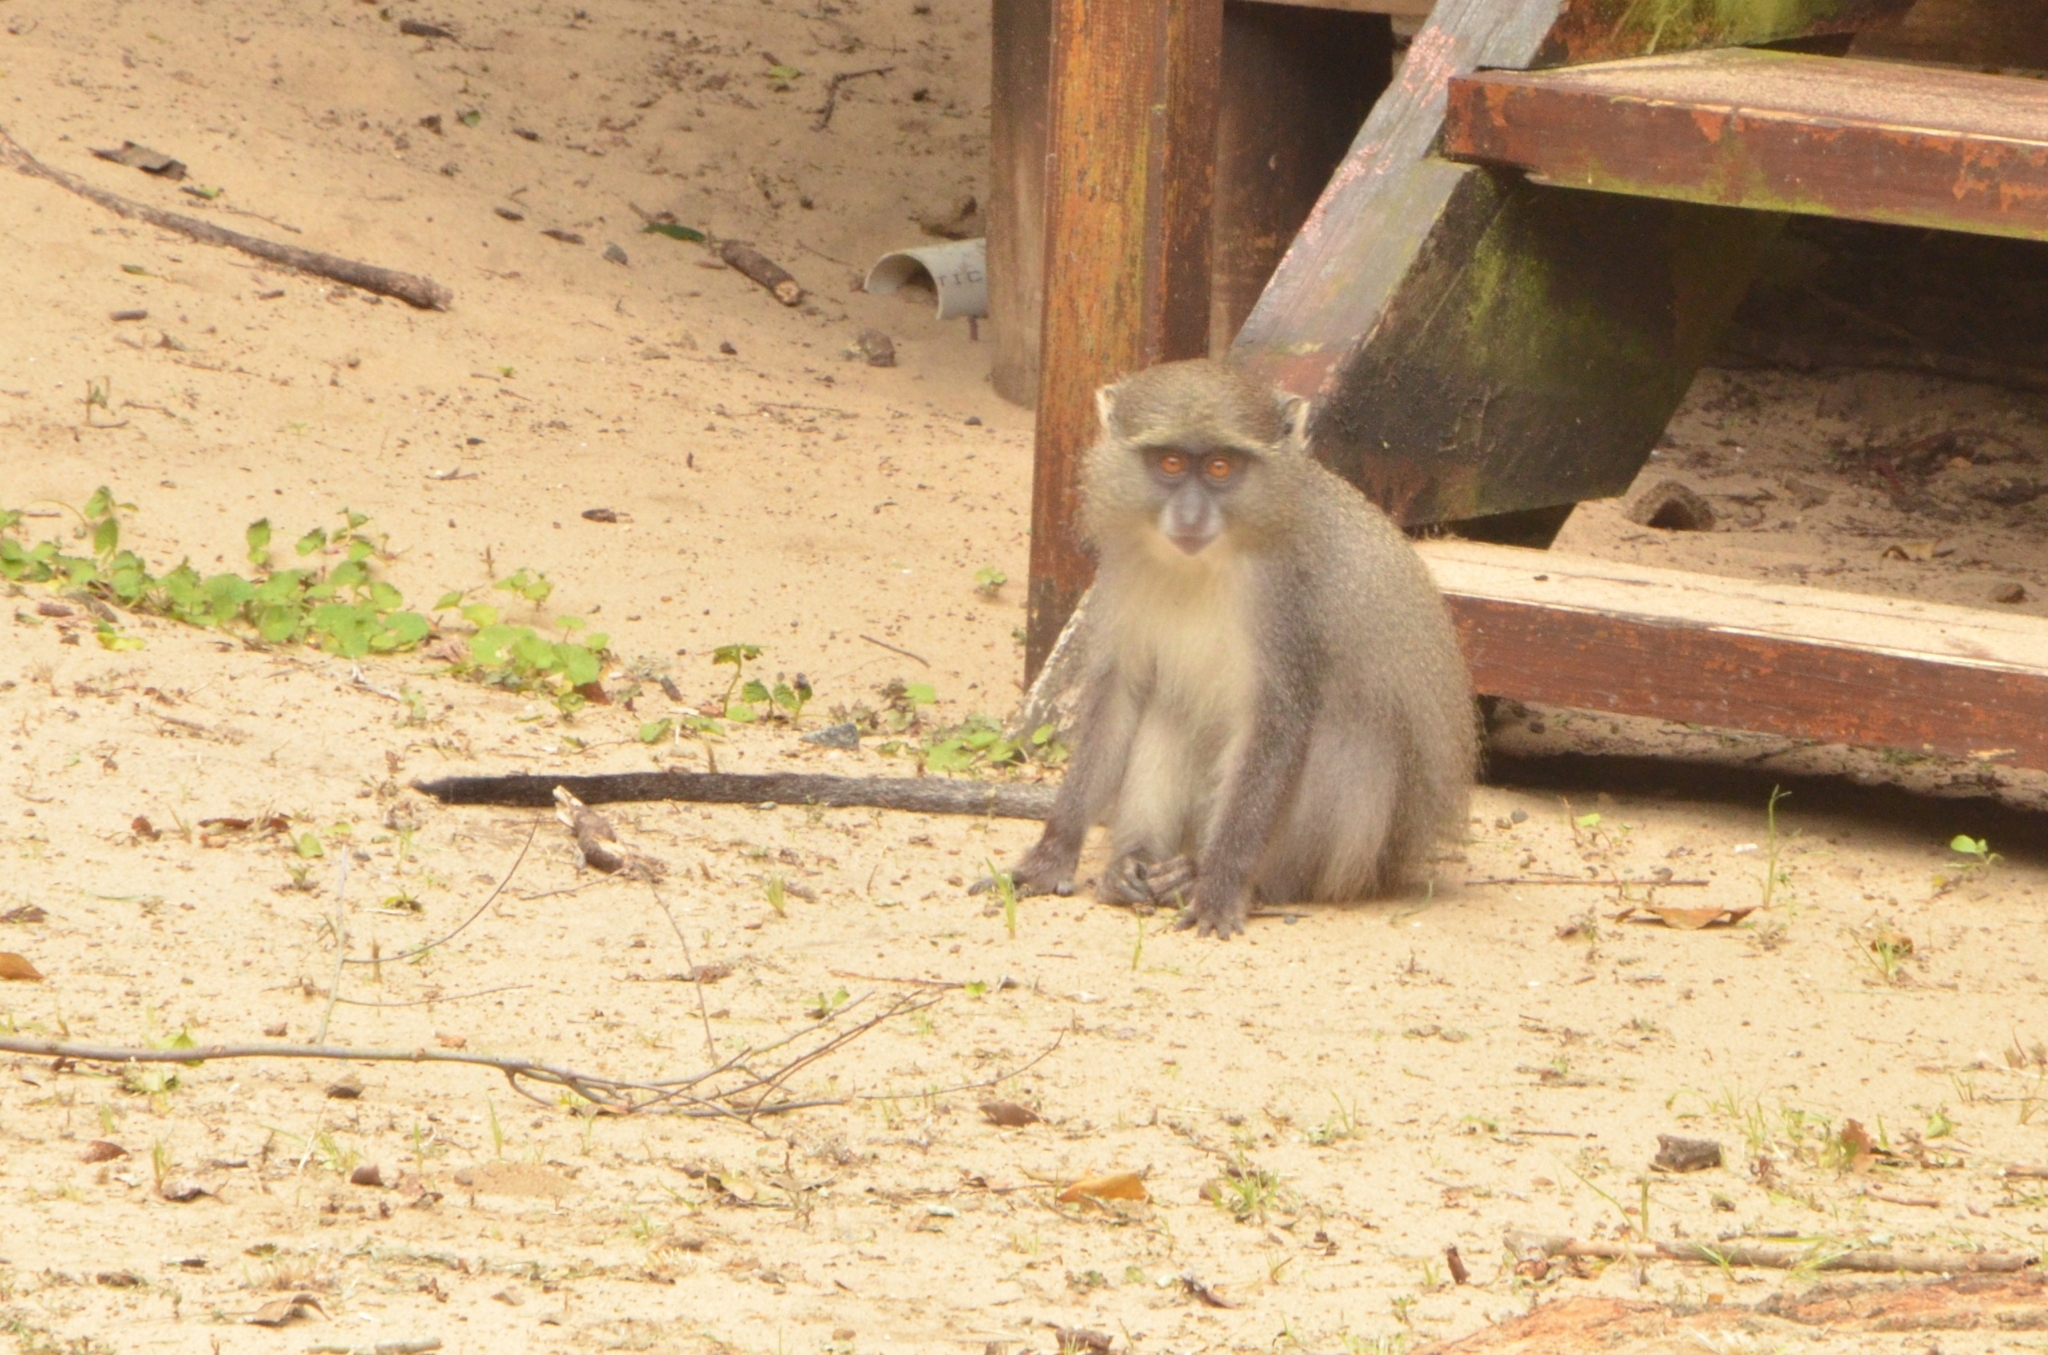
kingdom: Animalia
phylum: Chordata
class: Mammalia
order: Primates
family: Cercopithecidae
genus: Cercopithecus
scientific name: Cercopithecus mitis
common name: Blue monkey
